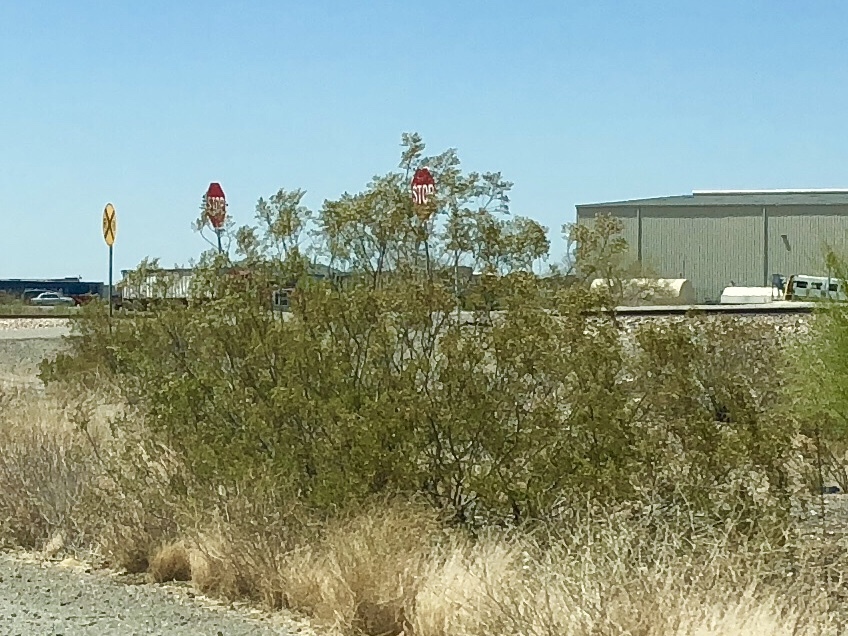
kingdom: Plantae
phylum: Tracheophyta
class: Magnoliopsida
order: Zygophyllales
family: Zygophyllaceae
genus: Larrea
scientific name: Larrea tridentata
